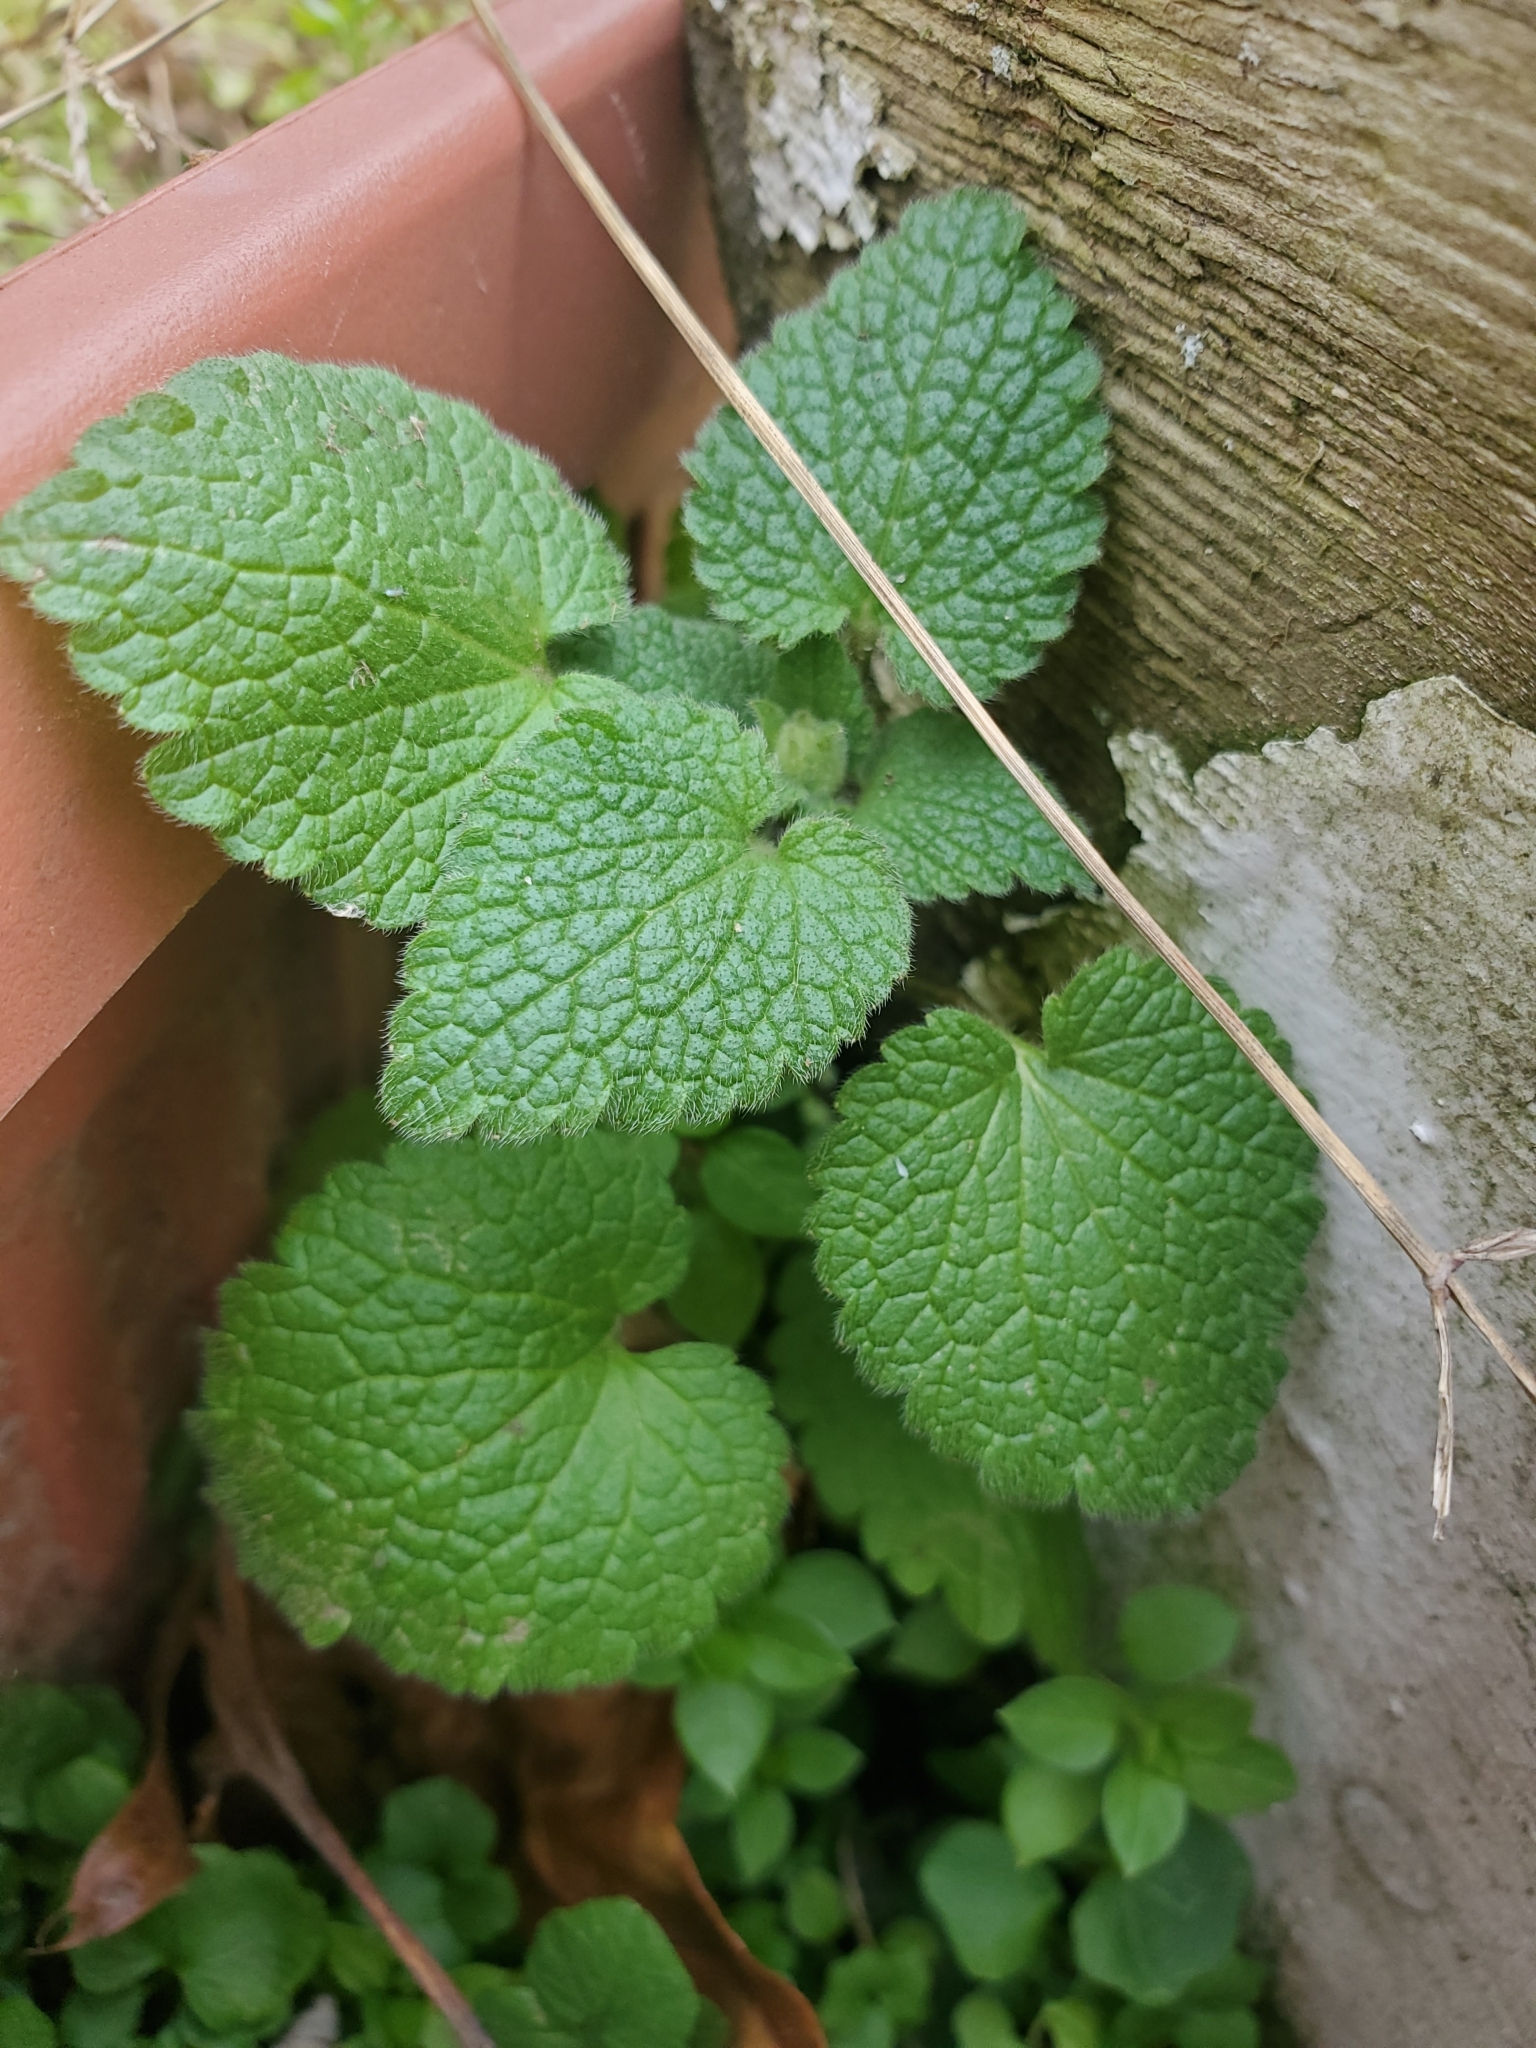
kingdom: Plantae
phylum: Tracheophyta
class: Magnoliopsida
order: Lamiales
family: Lamiaceae
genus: Lamium
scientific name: Lamium purpureum
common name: Red dead-nettle
